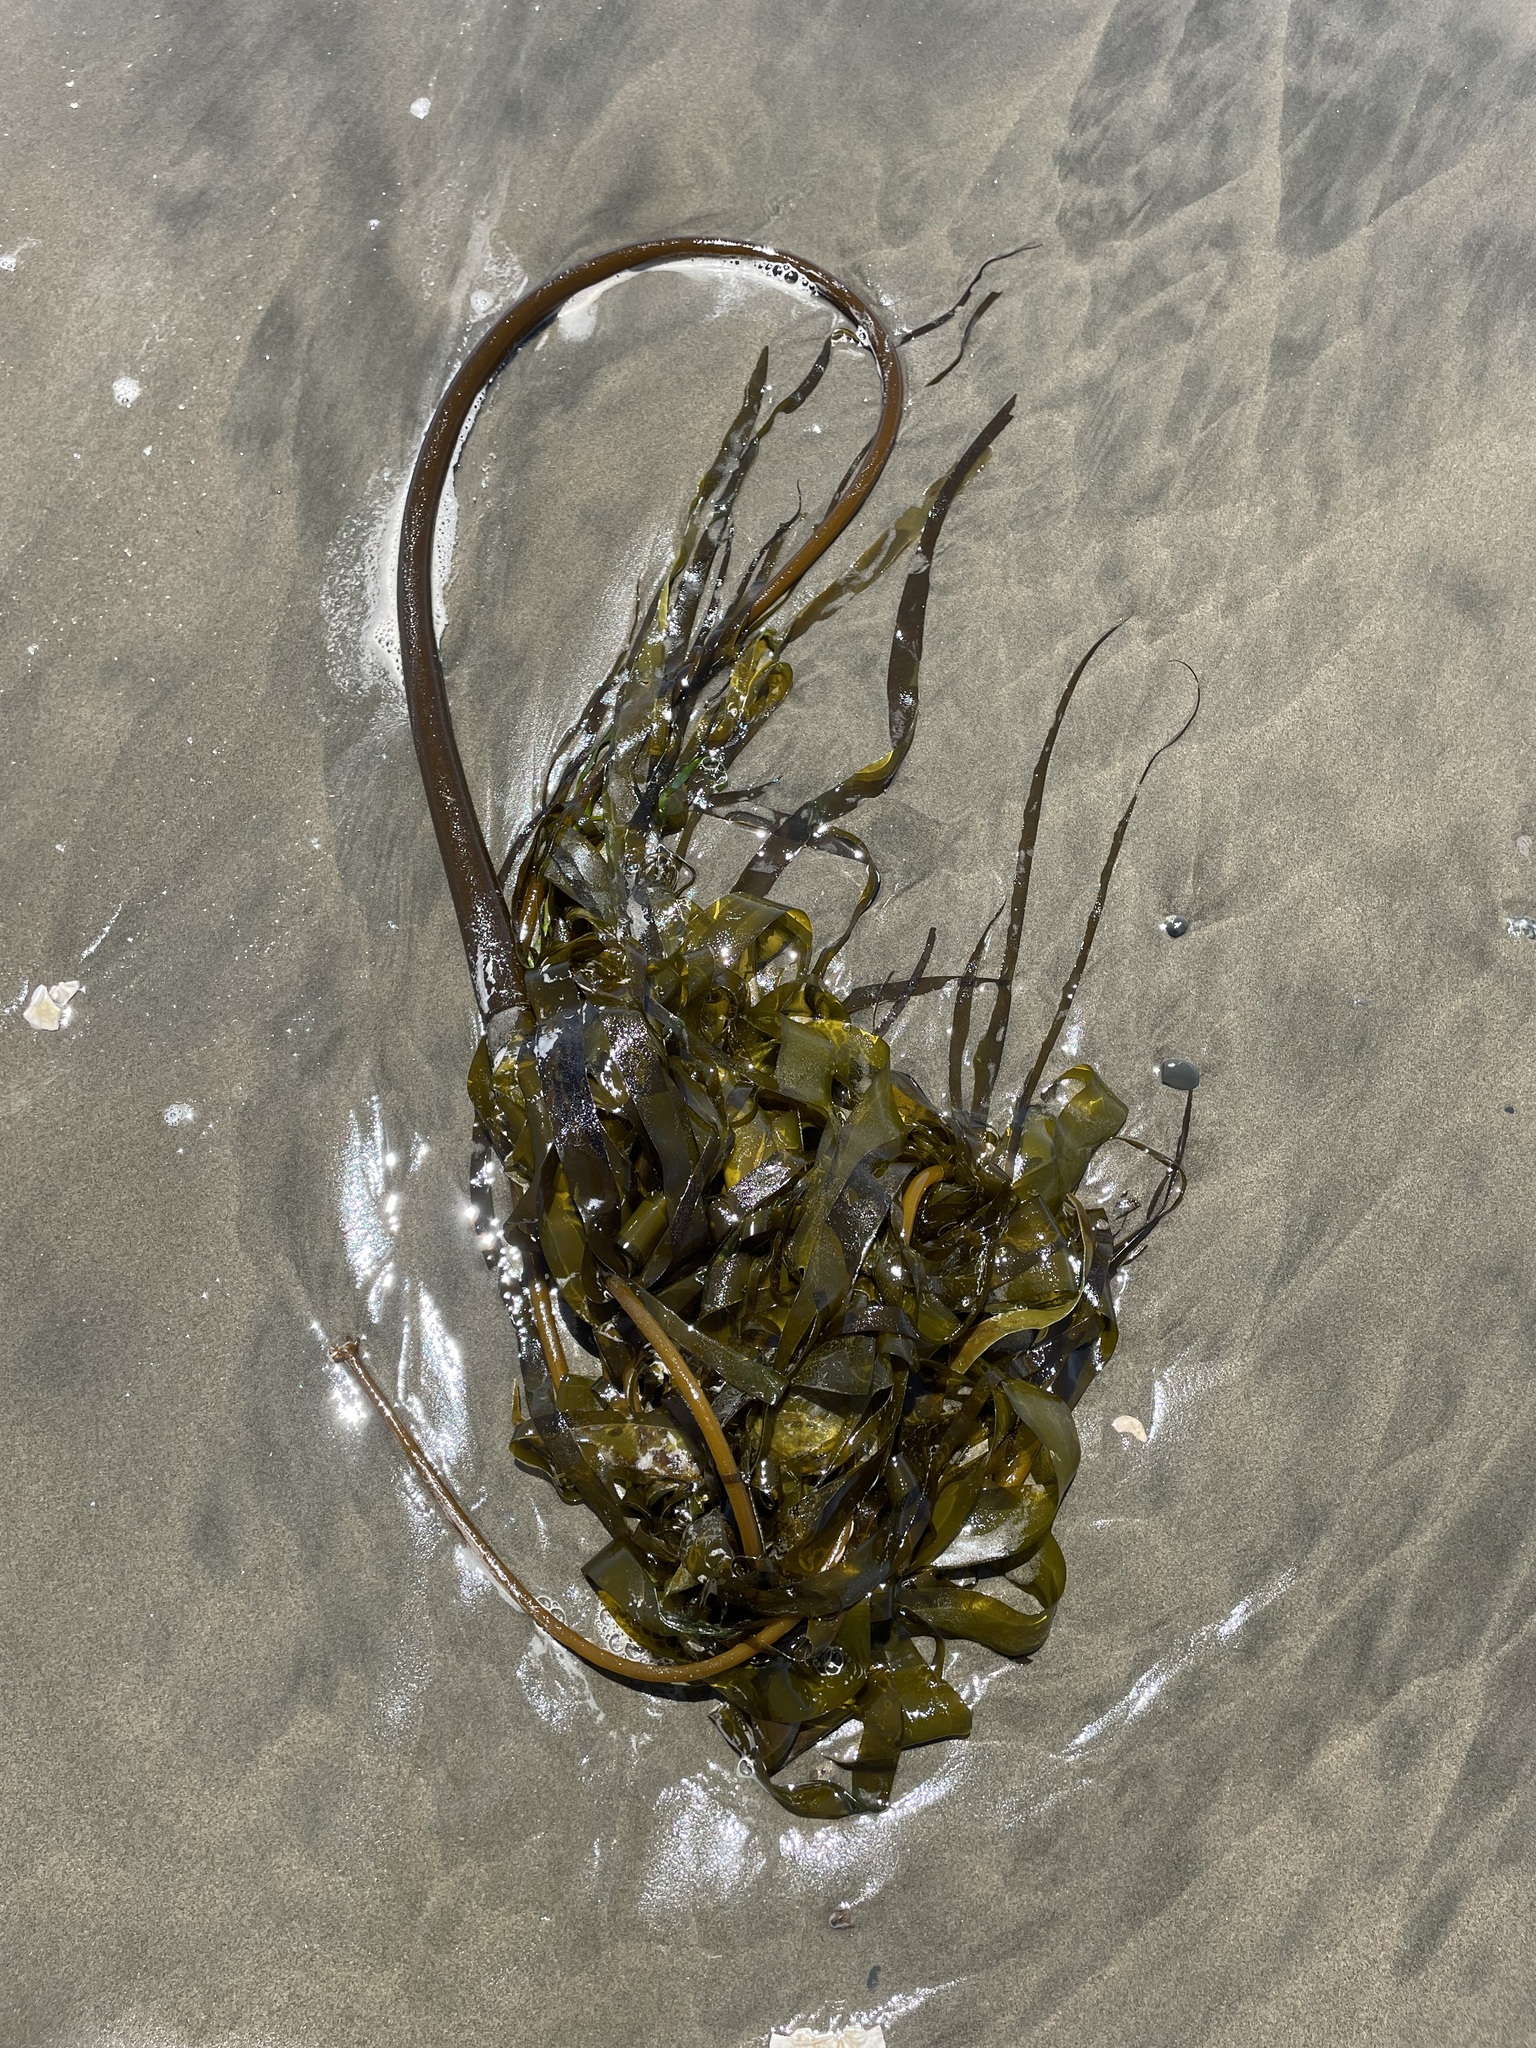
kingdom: Chromista
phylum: Ochrophyta
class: Phaeophyceae
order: Laminariales
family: Laminariaceae
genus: Nereocystis
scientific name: Nereocystis luetkeana
